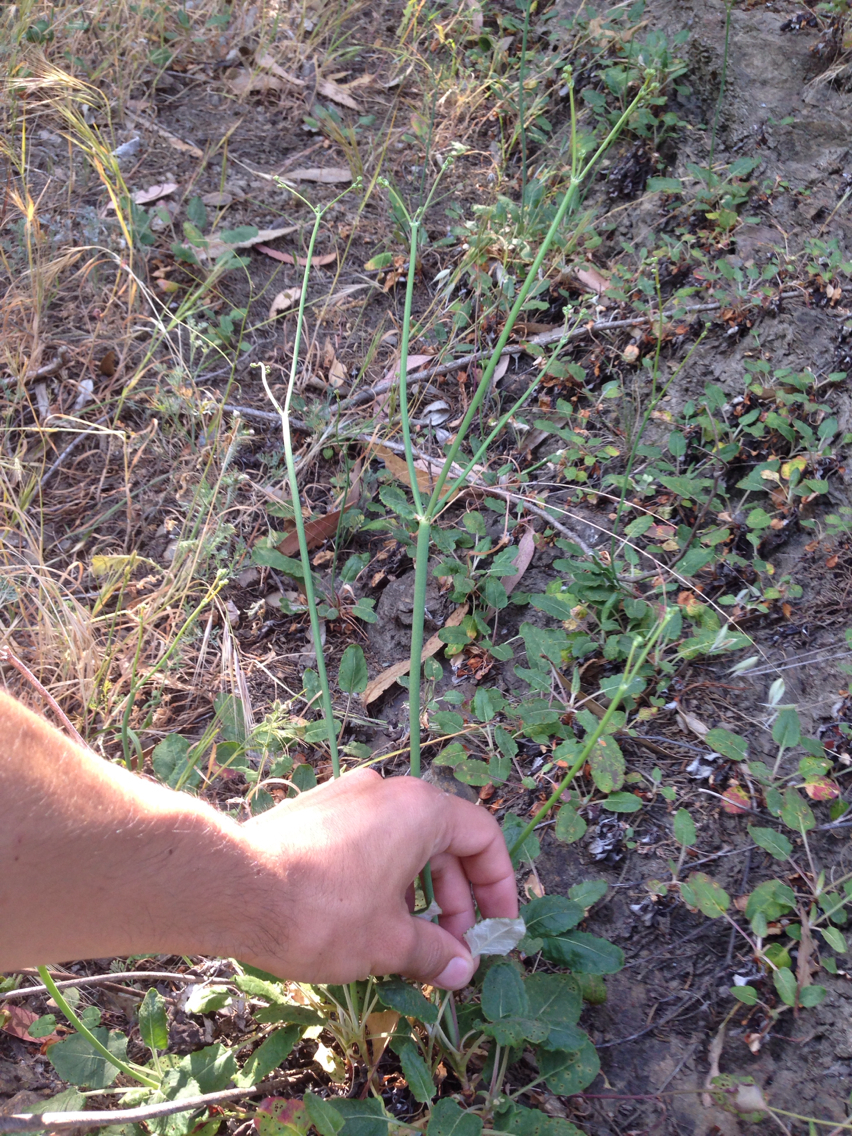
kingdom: Plantae
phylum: Tracheophyta
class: Magnoliopsida
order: Caryophyllales
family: Polygonaceae
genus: Eriogonum
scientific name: Eriogonum nudum
